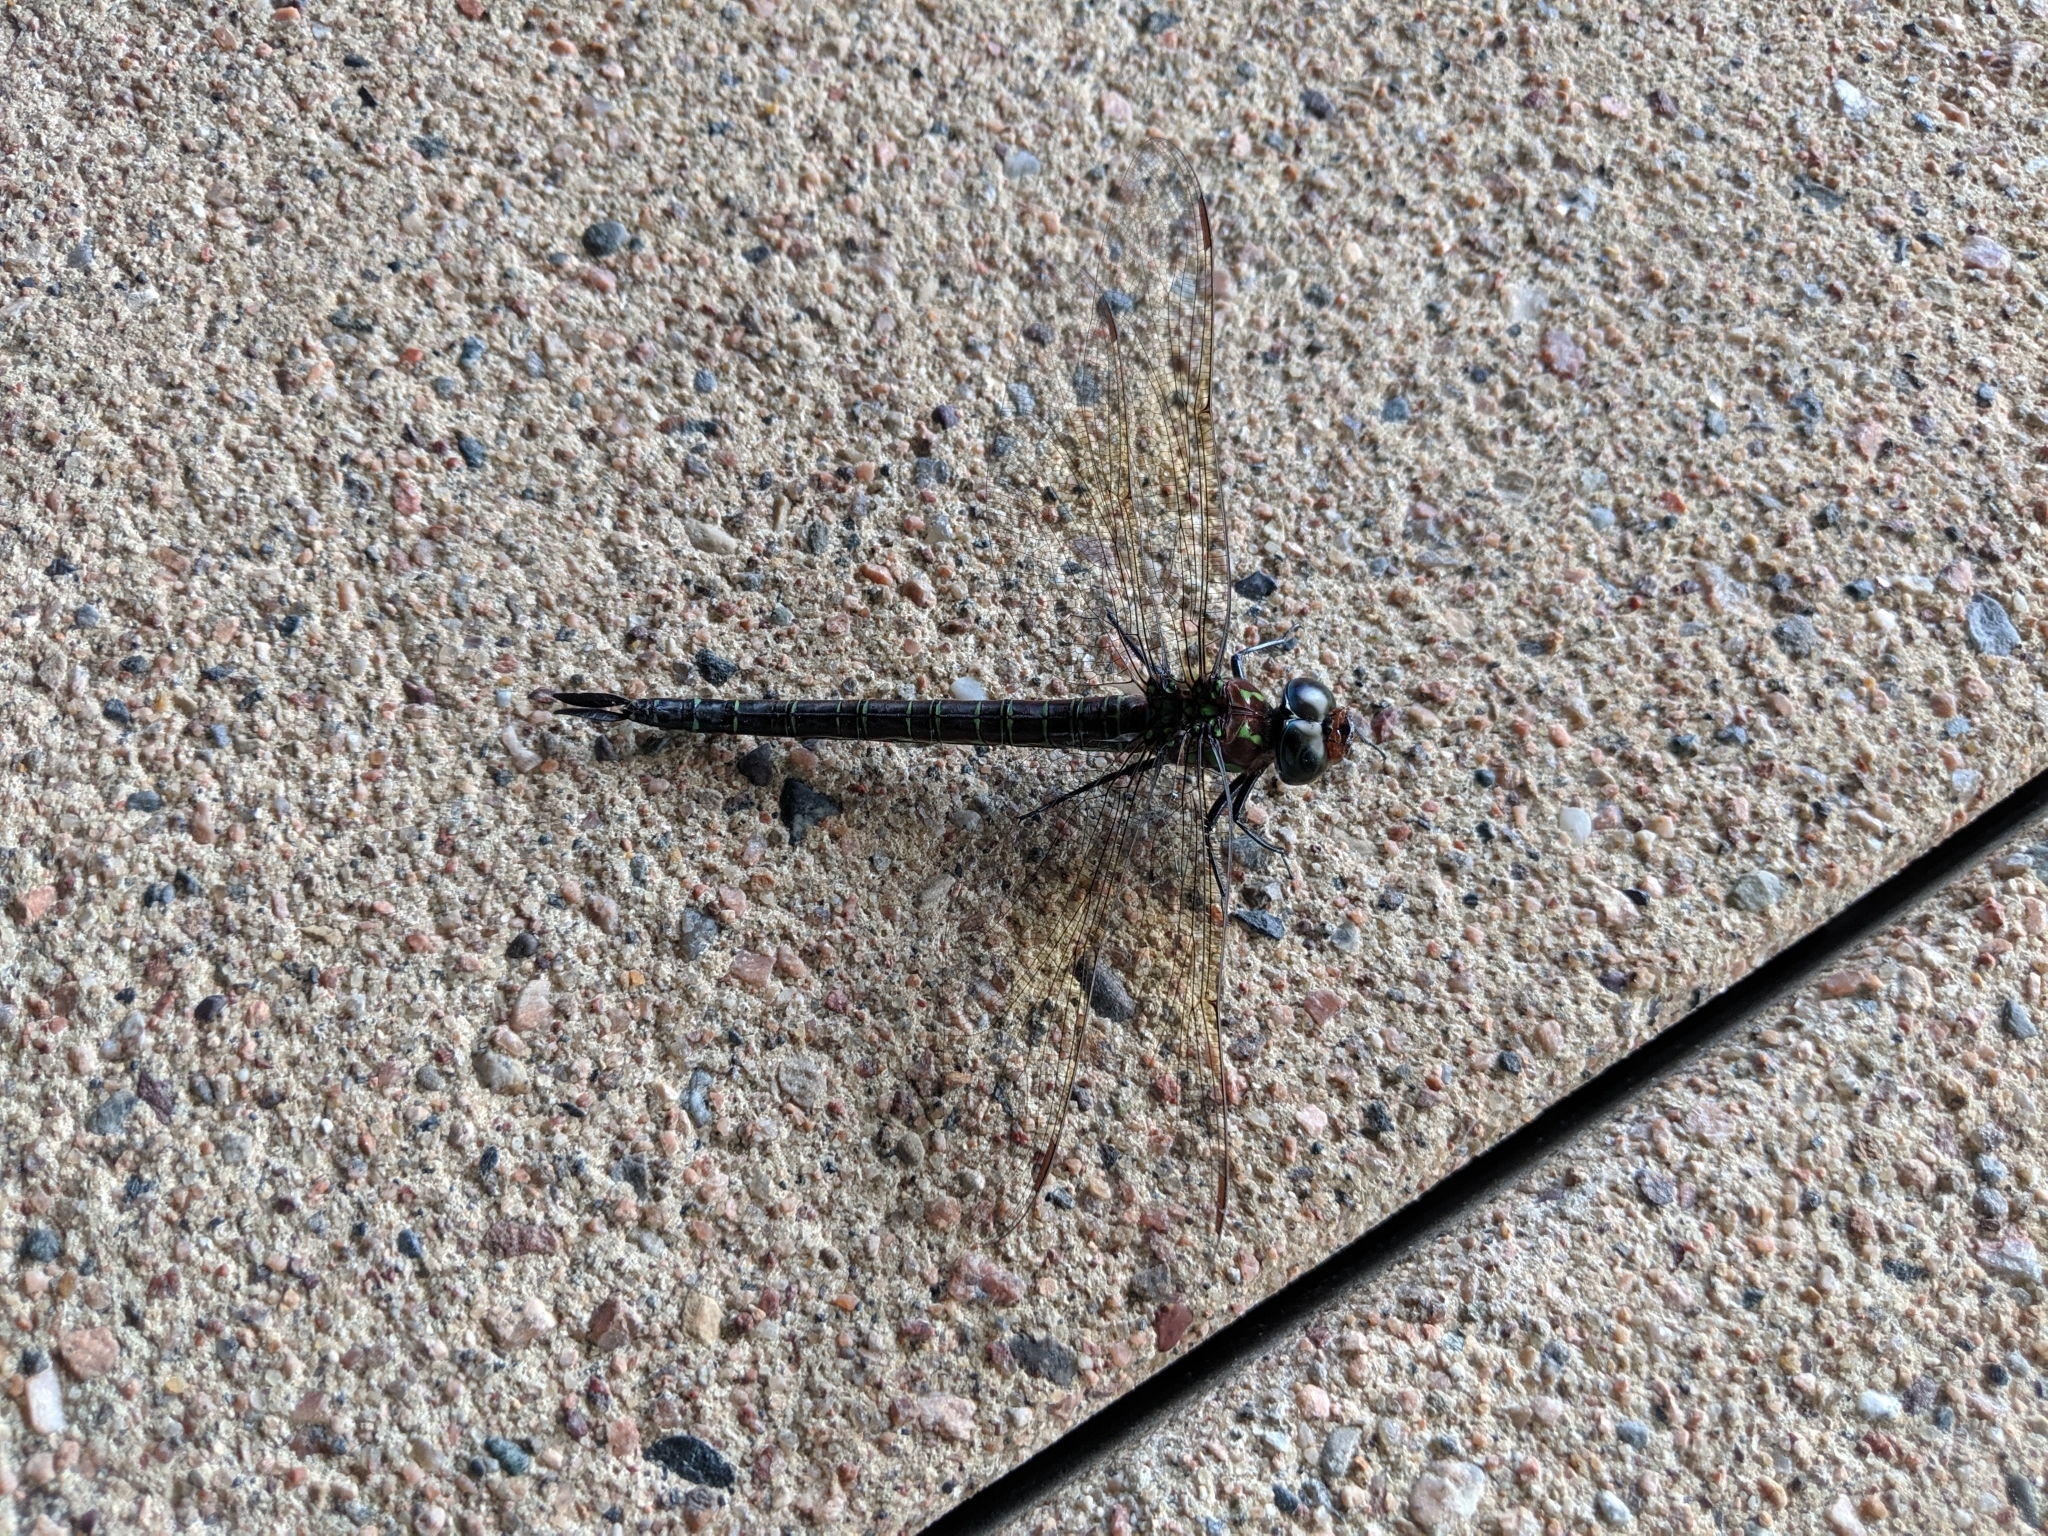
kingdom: Animalia
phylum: Arthropoda
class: Insecta
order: Odonata
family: Aeshnidae
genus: Epiaeschna
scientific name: Epiaeschna heros
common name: Swamp darner
